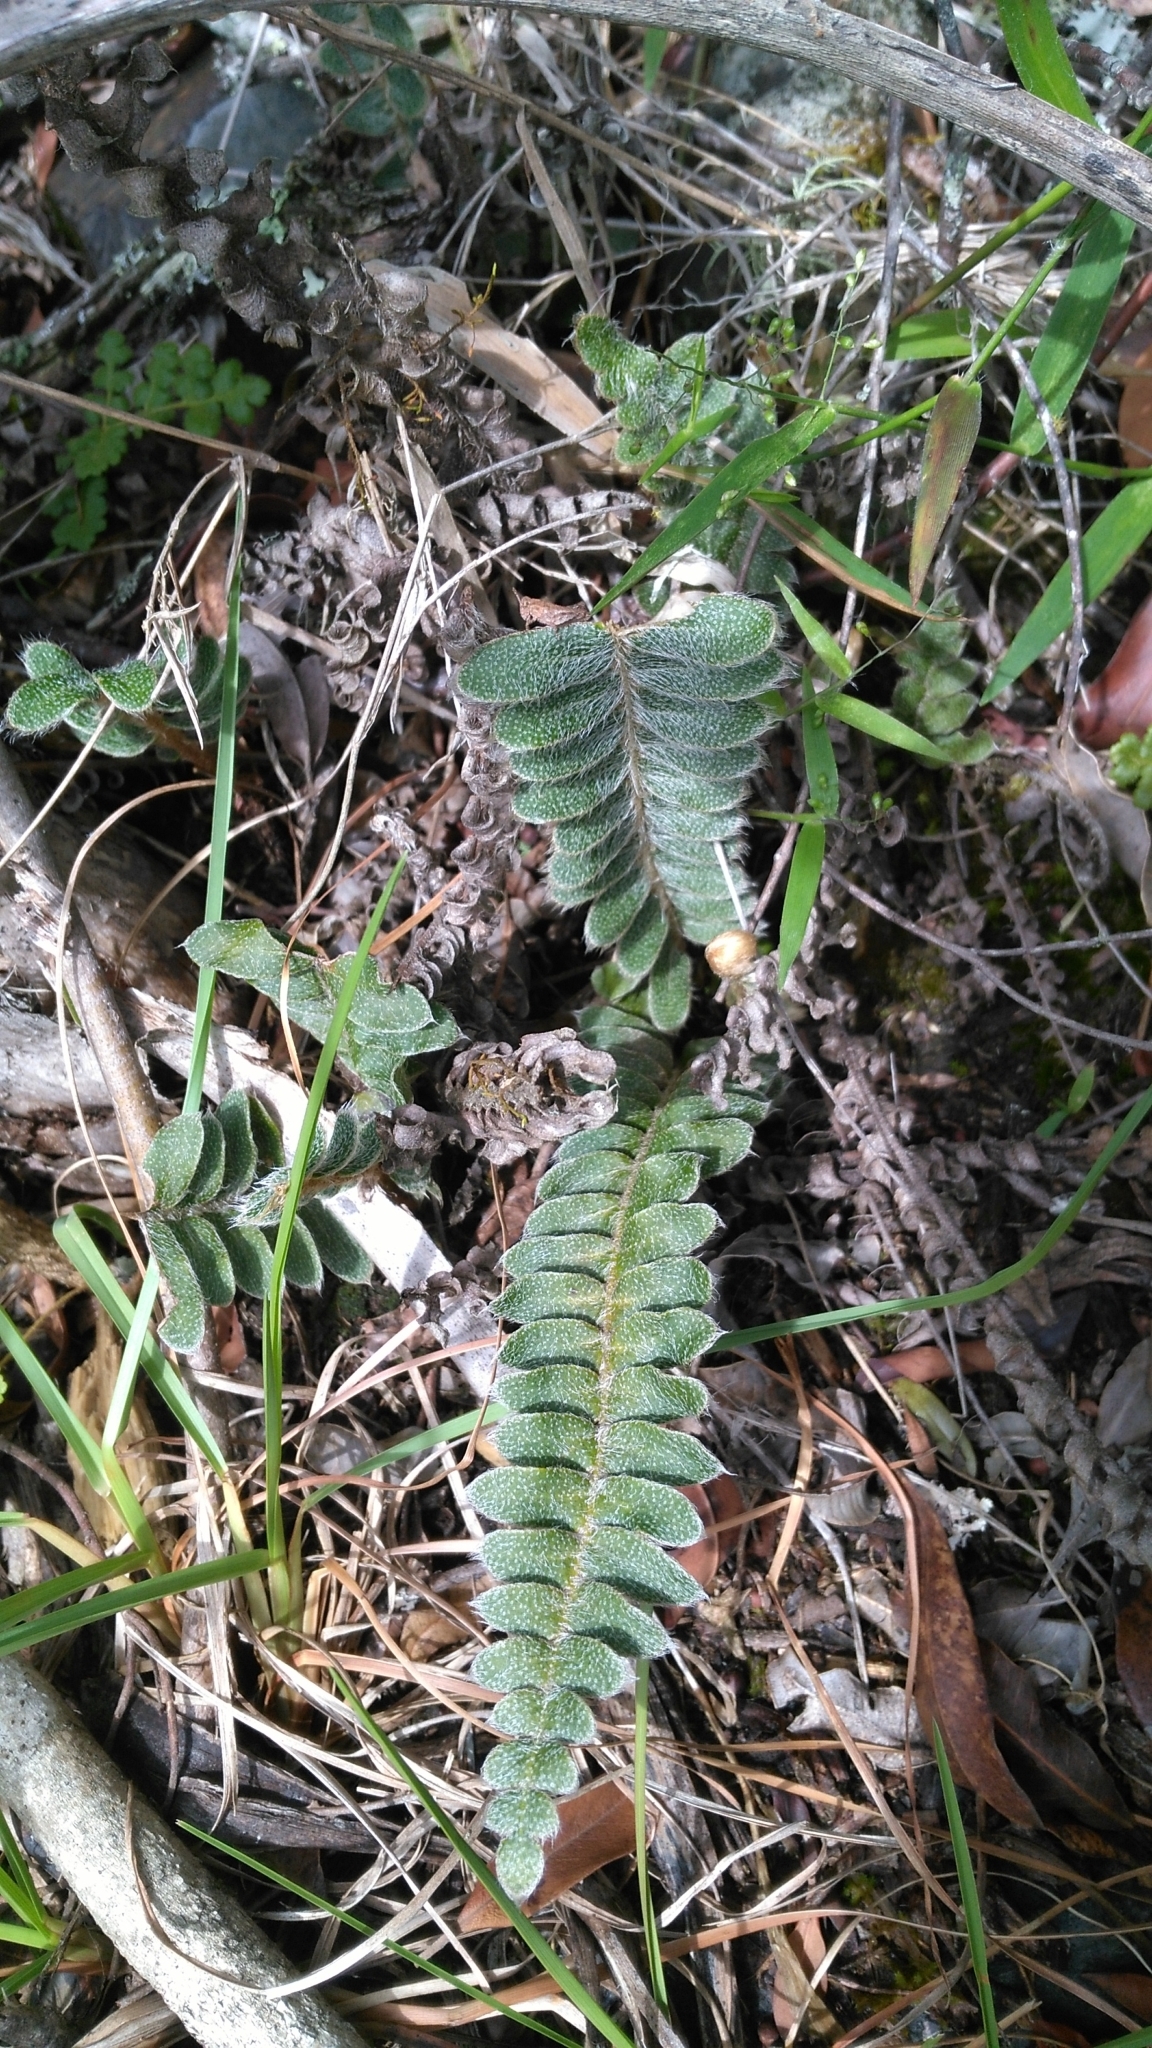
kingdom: Plantae
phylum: Tracheophyta
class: Polypodiopsida
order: Polypodiales
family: Polypodiaceae
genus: Pleopeltis
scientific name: Pleopeltis lepidopteris
